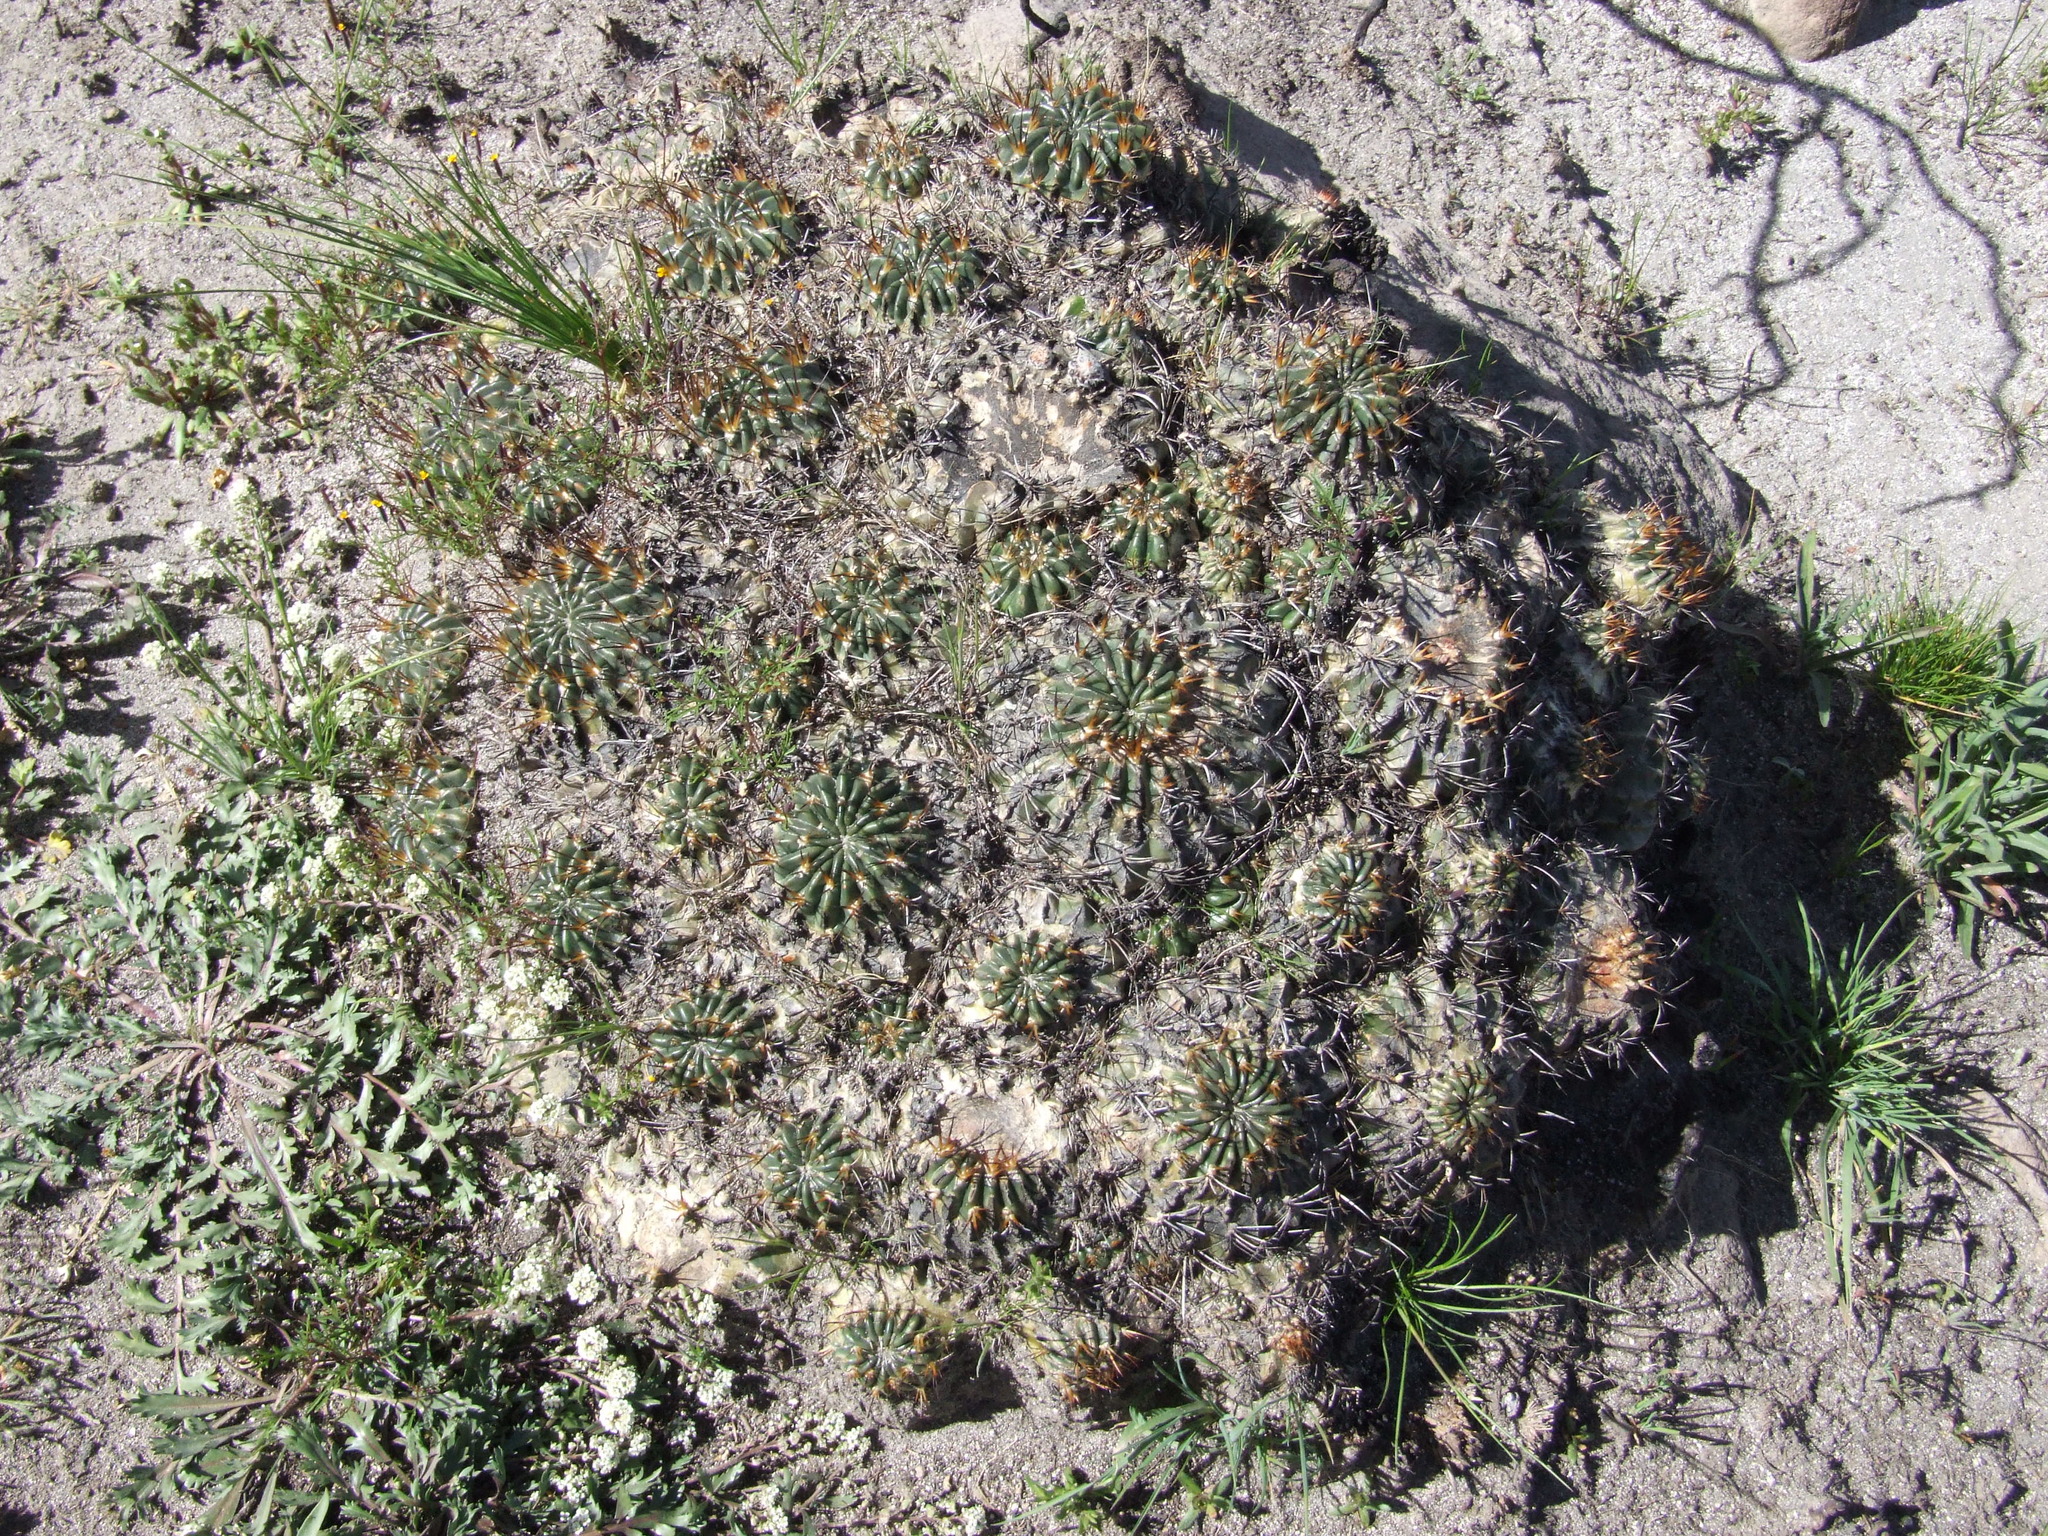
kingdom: Plantae
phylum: Tracheophyta
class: Magnoliopsida
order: Caryophyllales
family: Cactaceae
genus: Lobivia
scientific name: Lobivia pampana
